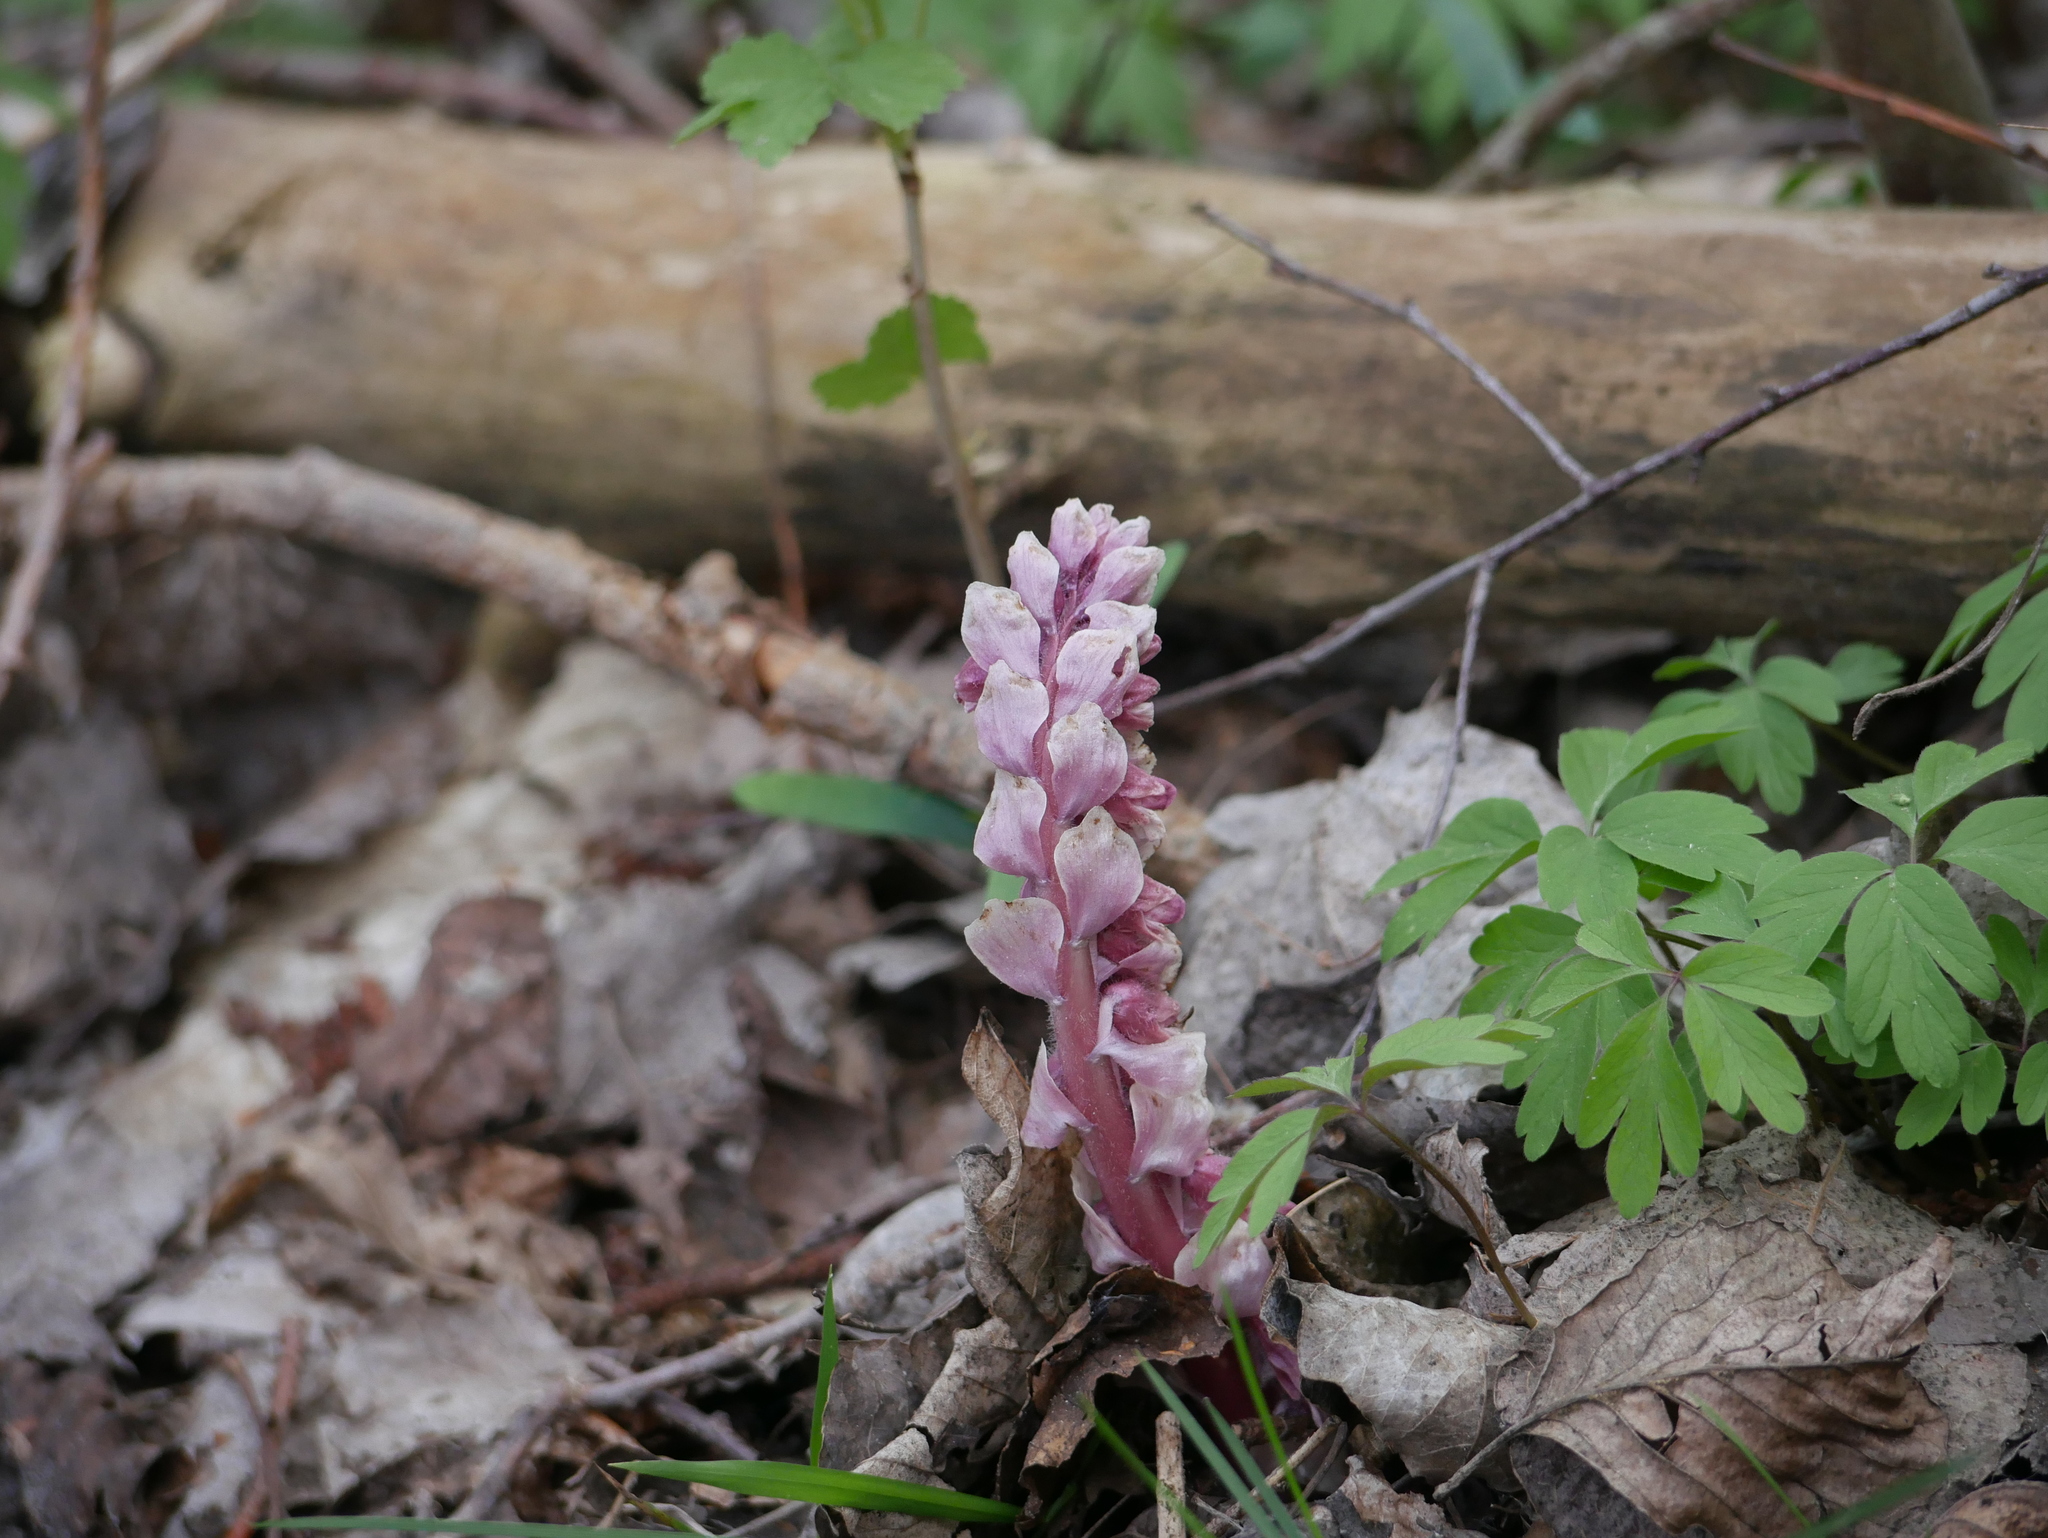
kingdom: Plantae
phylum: Tracheophyta
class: Magnoliopsida
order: Lamiales
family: Orobanchaceae
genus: Lathraea
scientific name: Lathraea squamaria
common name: Toothwort
